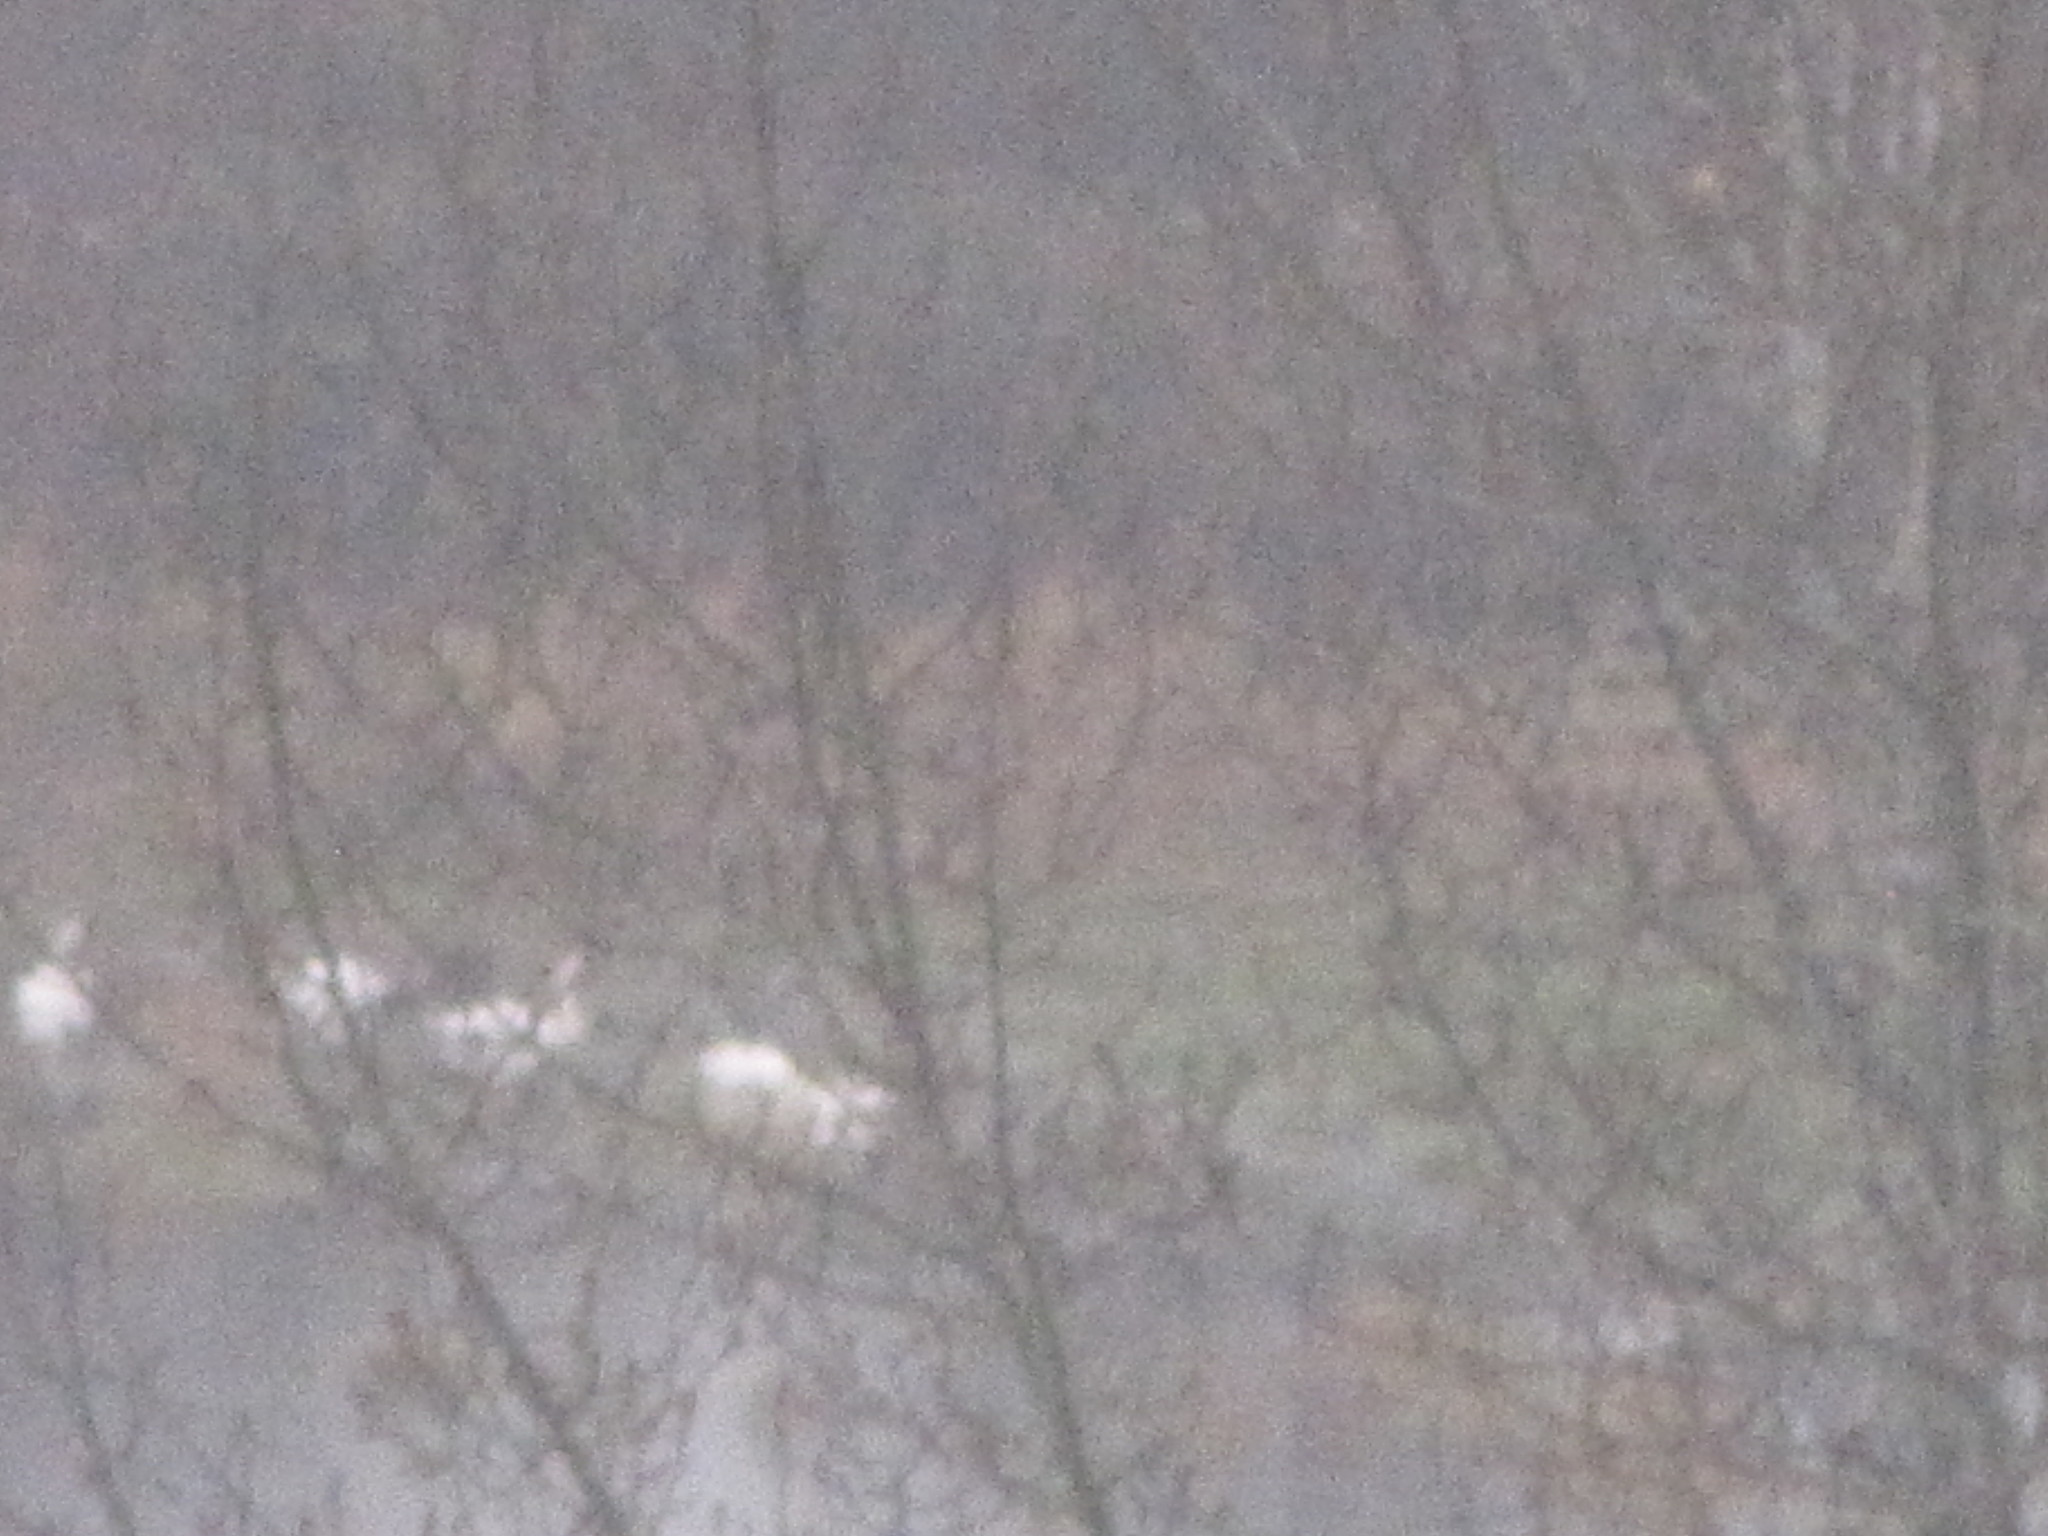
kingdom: Animalia
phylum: Chordata
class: Aves
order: Anseriformes
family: Anatidae
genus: Cygnus
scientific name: Cygnus buccinator
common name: Trumpeter swan
